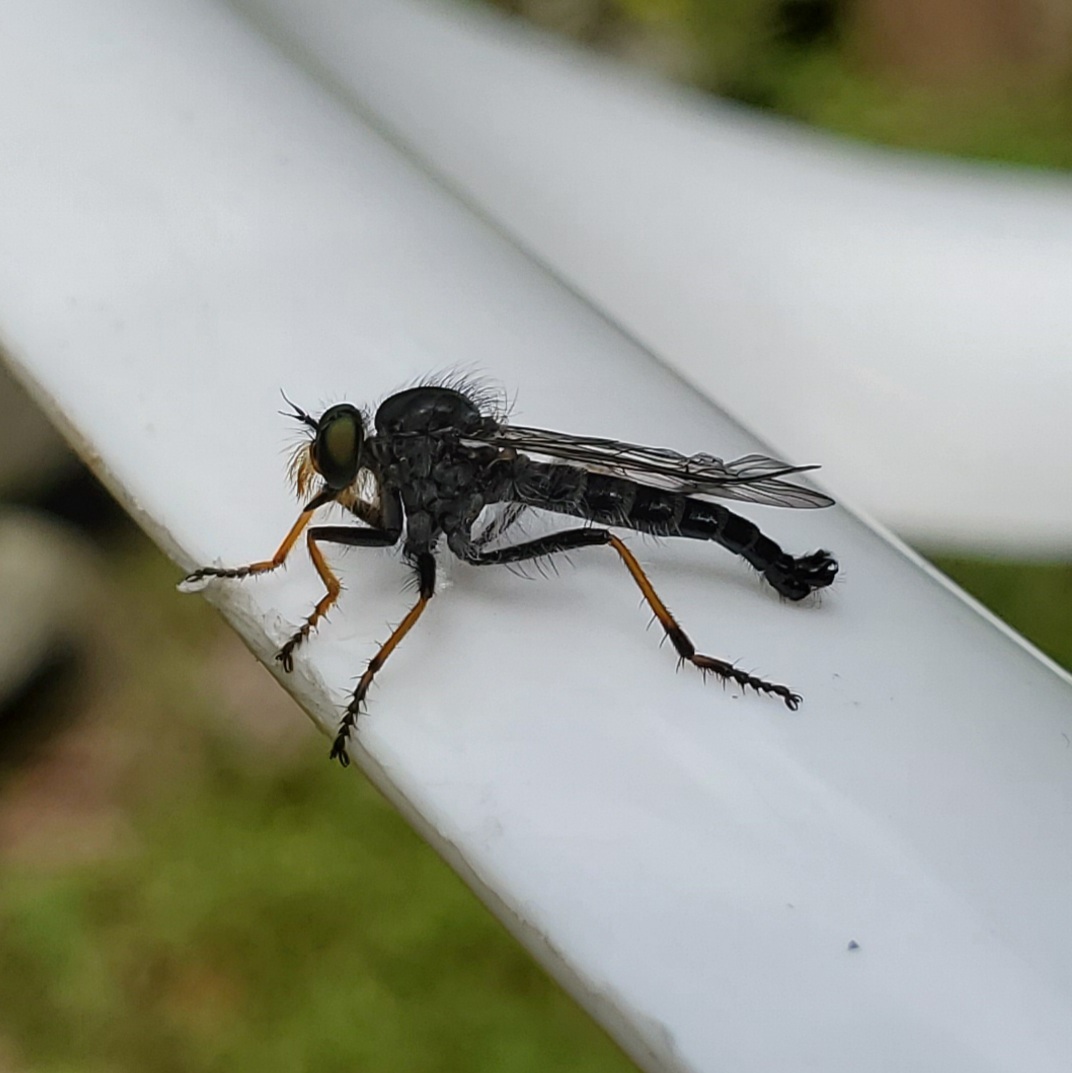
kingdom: Animalia
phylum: Arthropoda
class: Insecta
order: Diptera
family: Asilidae
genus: Neoitamus
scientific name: Neoitamus orphne
